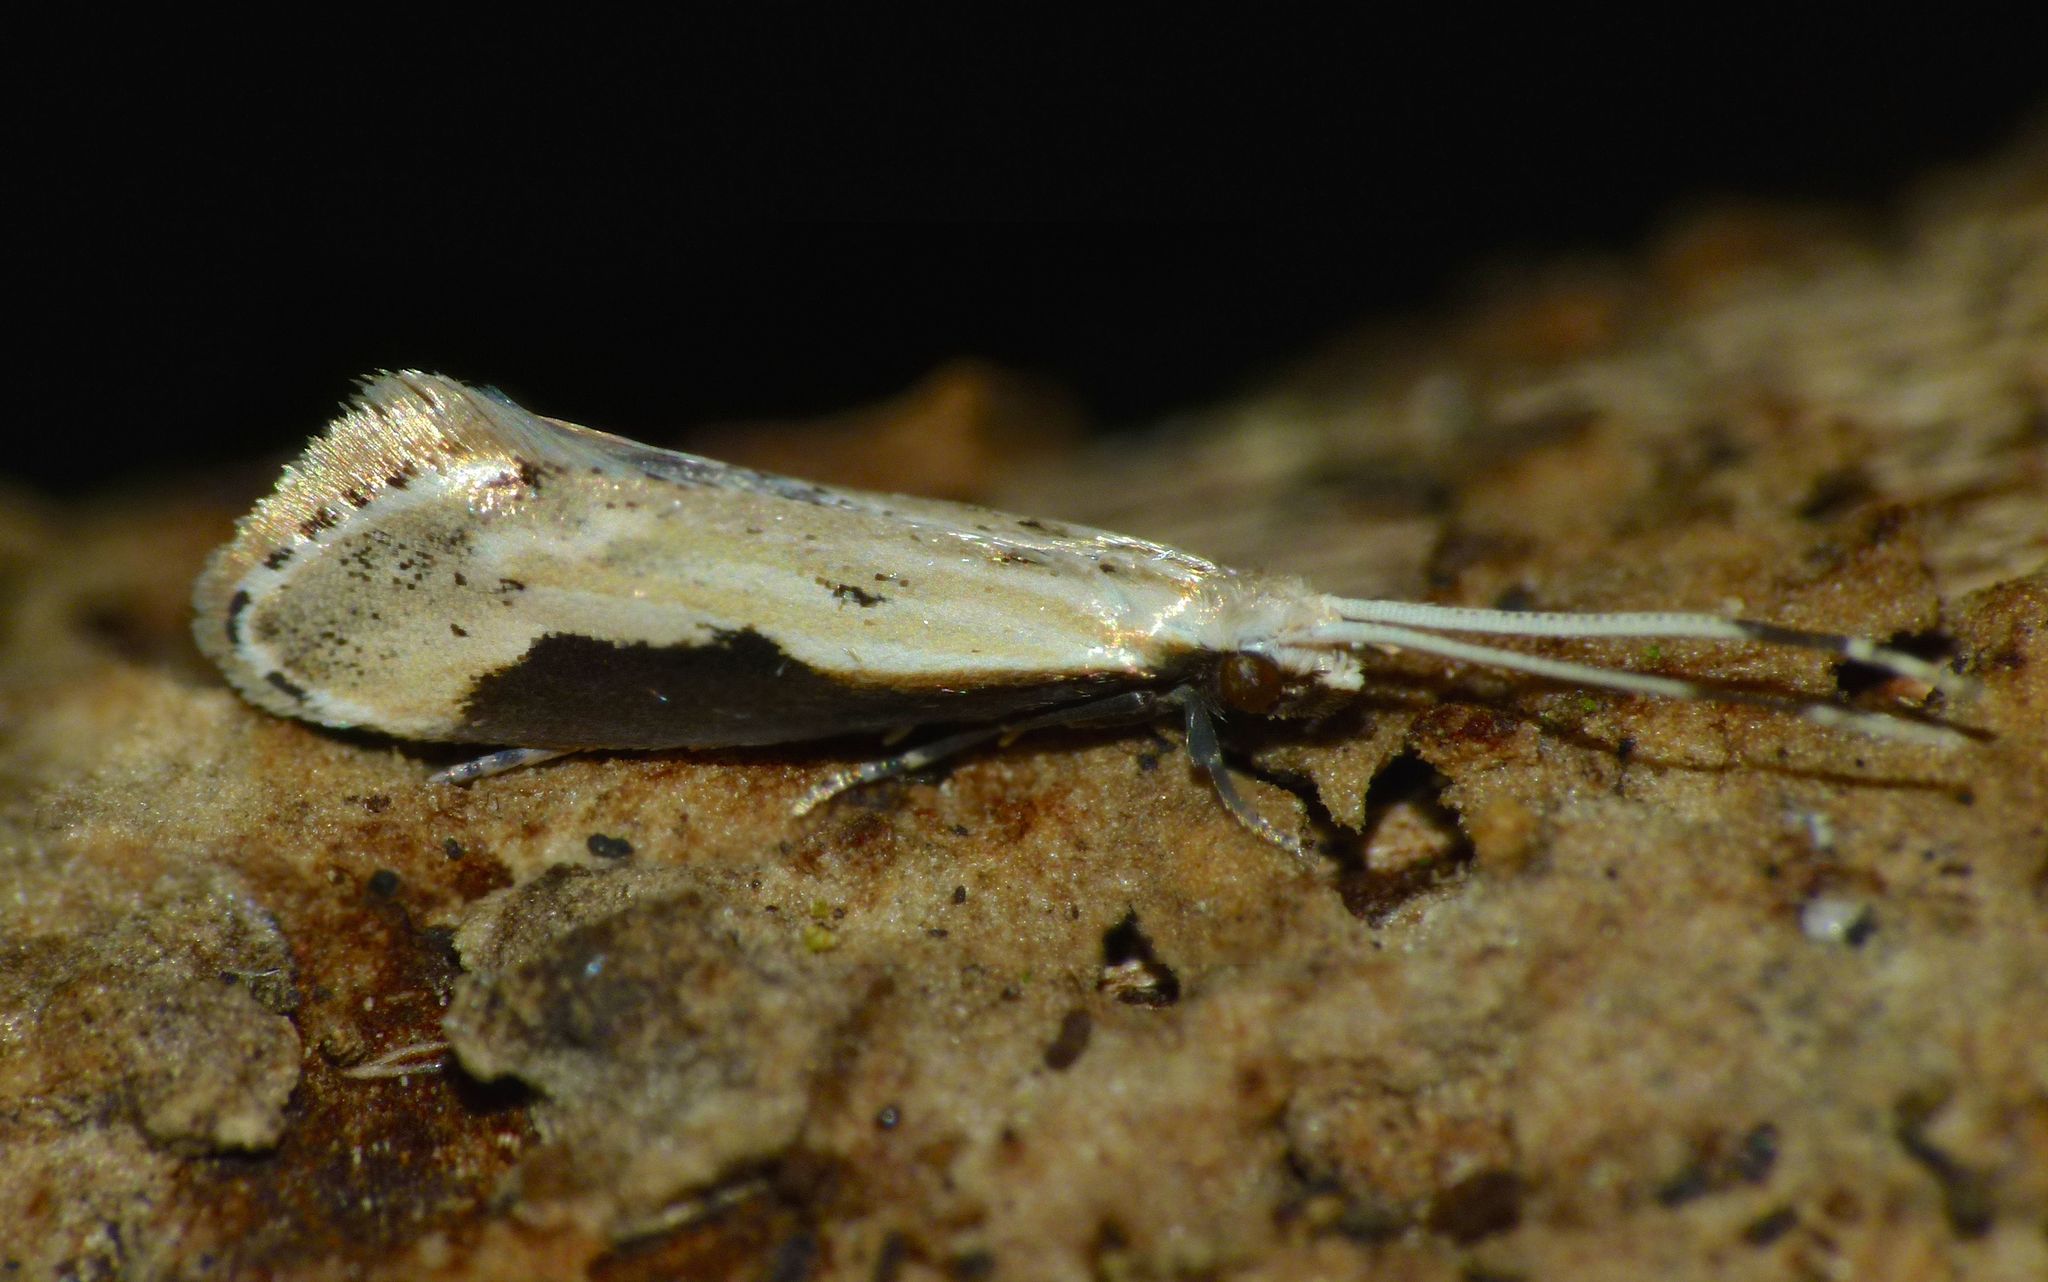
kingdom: Animalia
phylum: Arthropoda
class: Insecta
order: Lepidoptera
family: Tineidae
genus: Sagephora
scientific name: Sagephora phortegella
